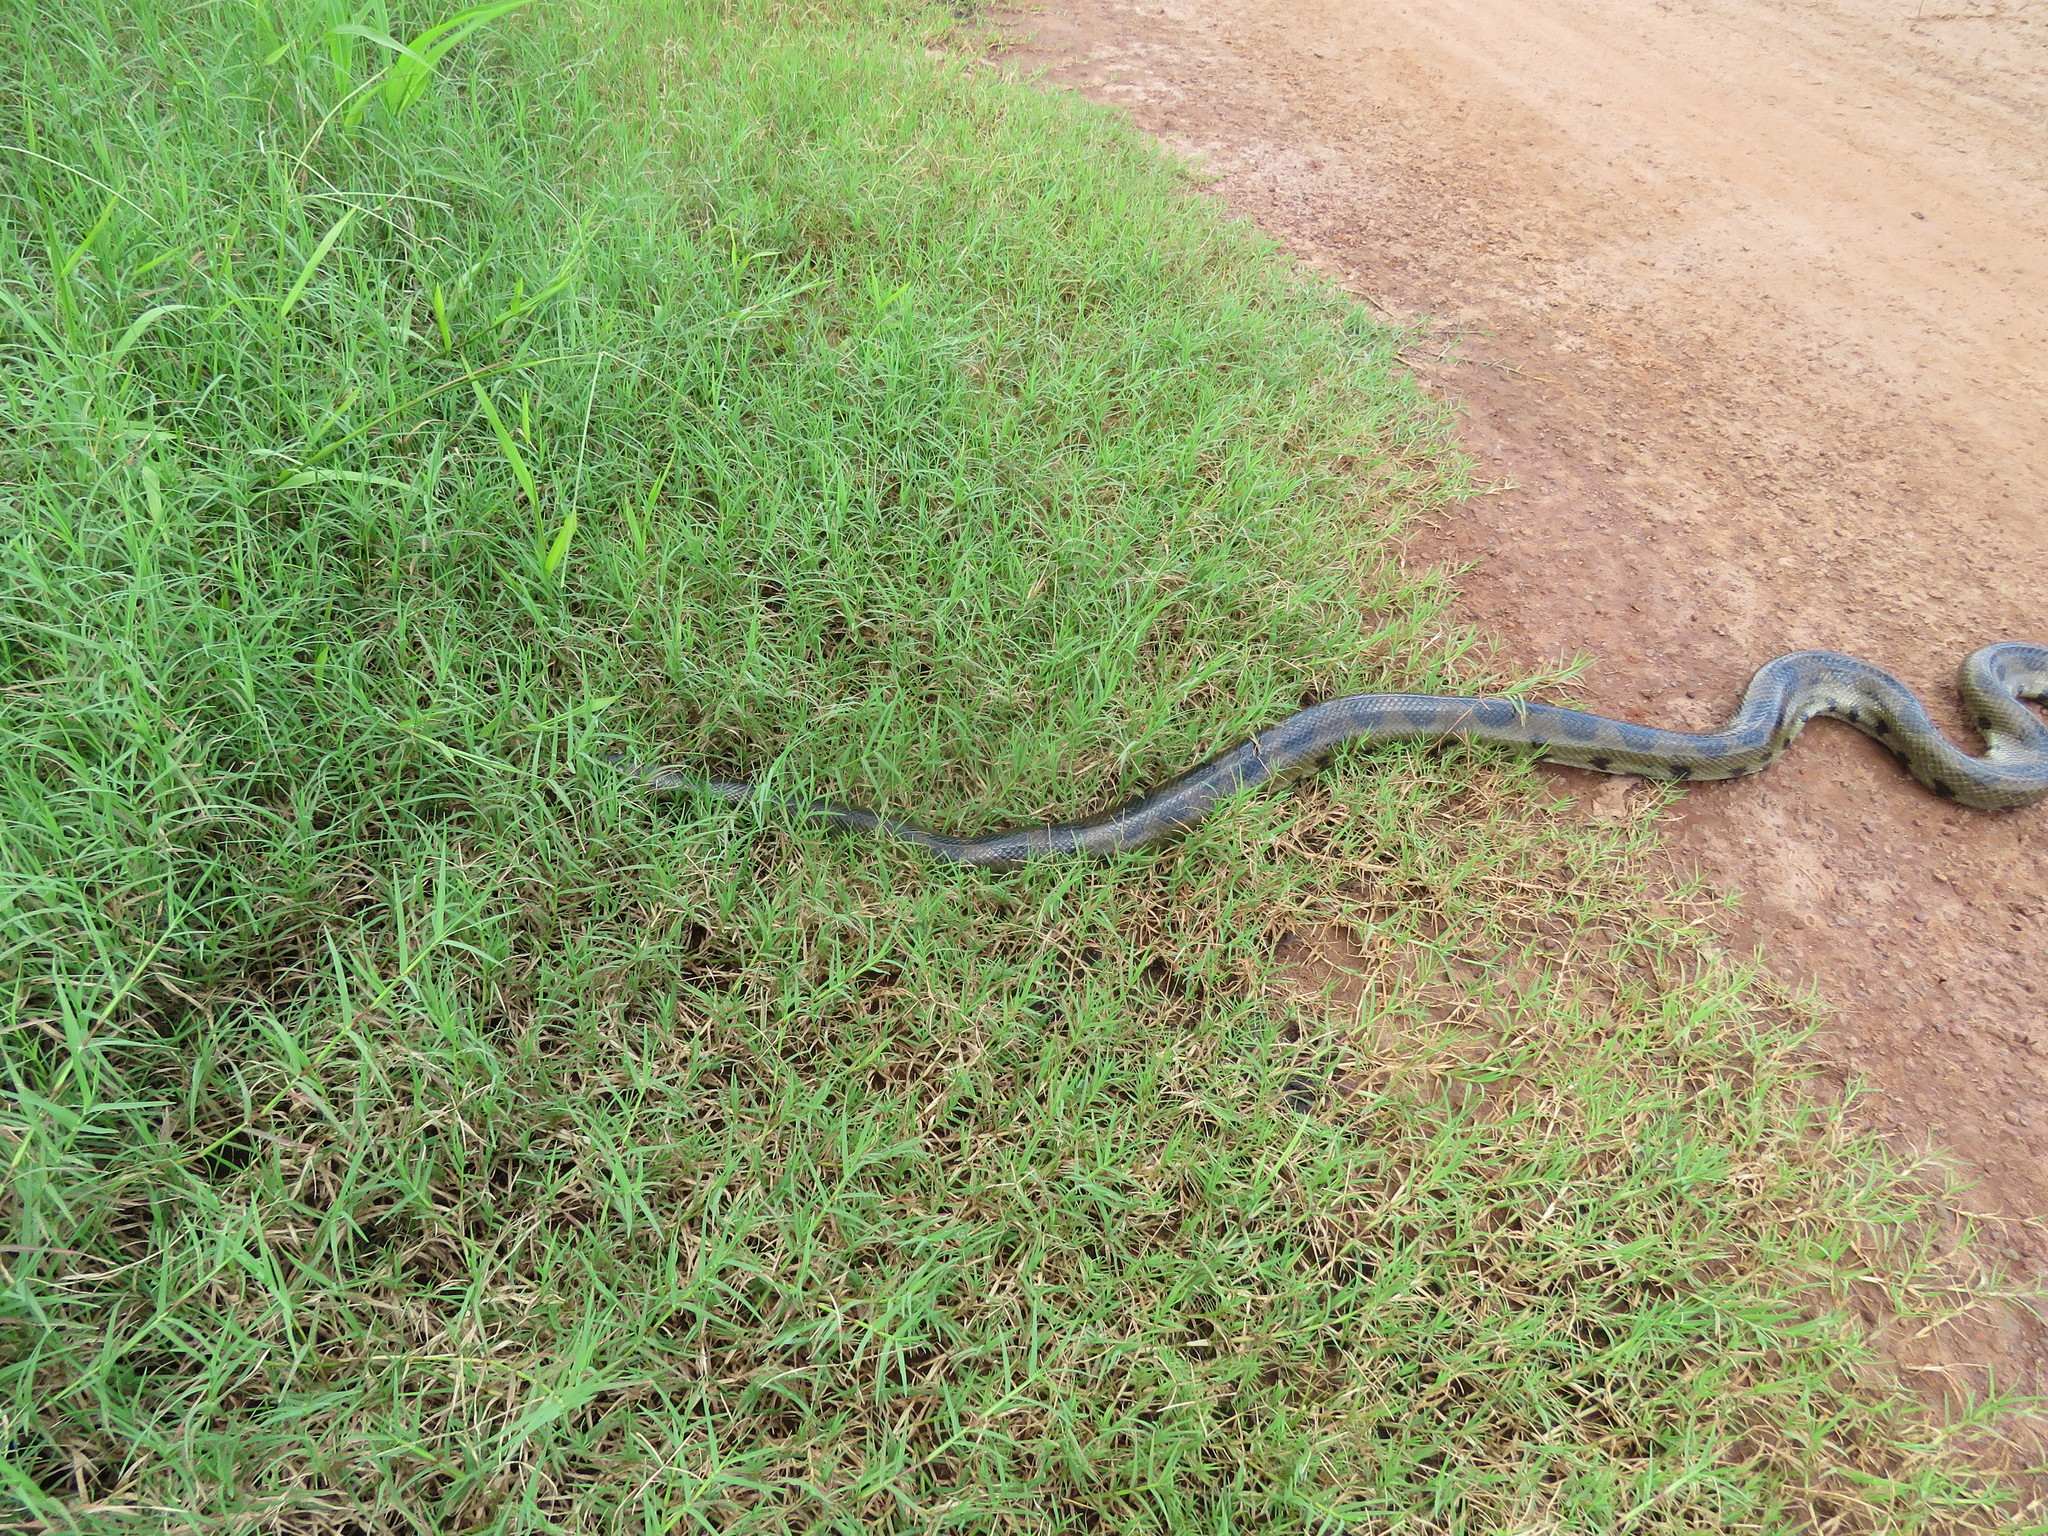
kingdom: Animalia
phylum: Chordata
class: Squamata
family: Boidae
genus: Eunectes
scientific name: Eunectes beniensis
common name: Beni anaconda
